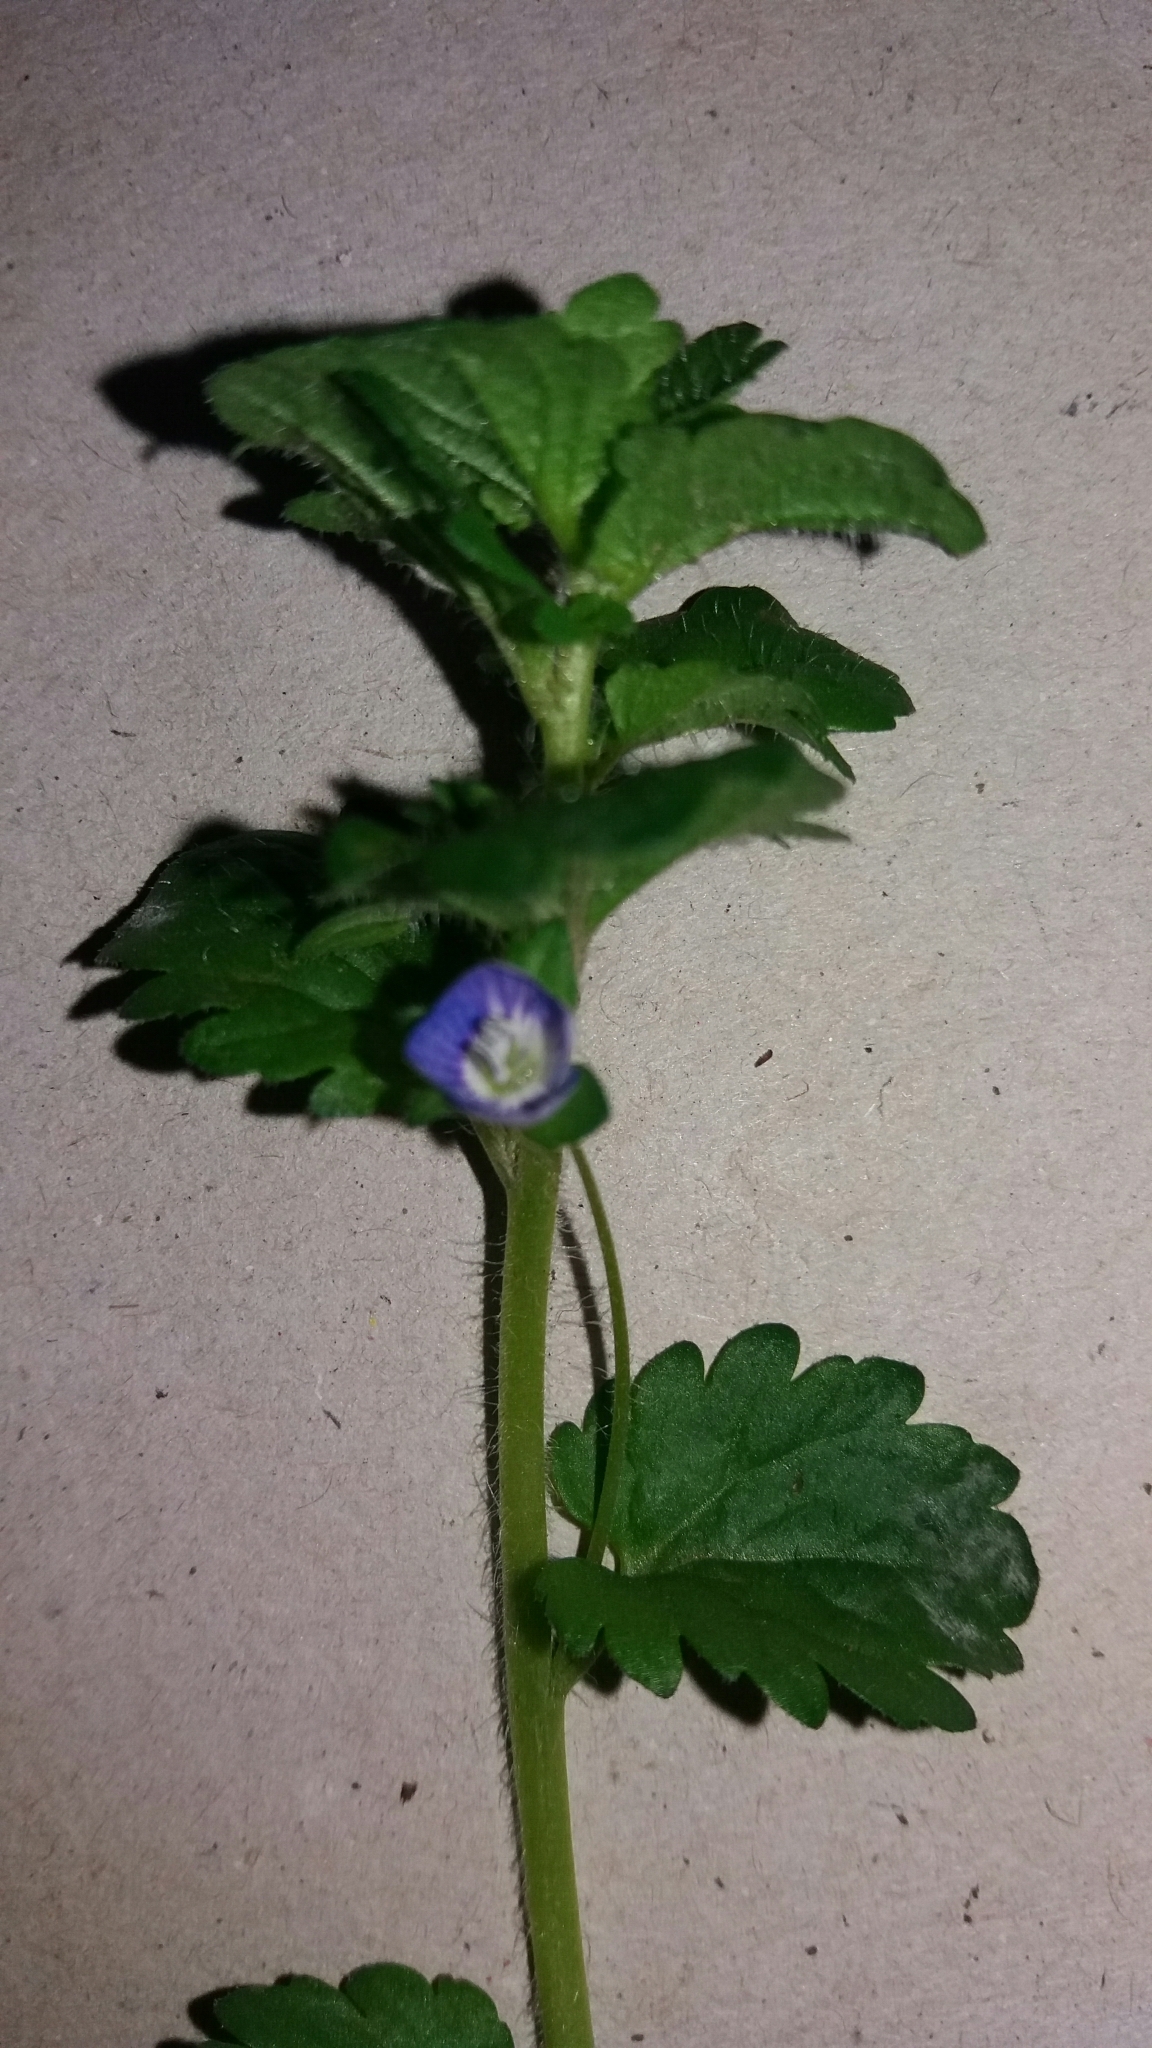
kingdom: Plantae
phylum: Tracheophyta
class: Magnoliopsida
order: Lamiales
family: Plantaginaceae
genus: Veronica
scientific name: Veronica persica
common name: Common field-speedwell
